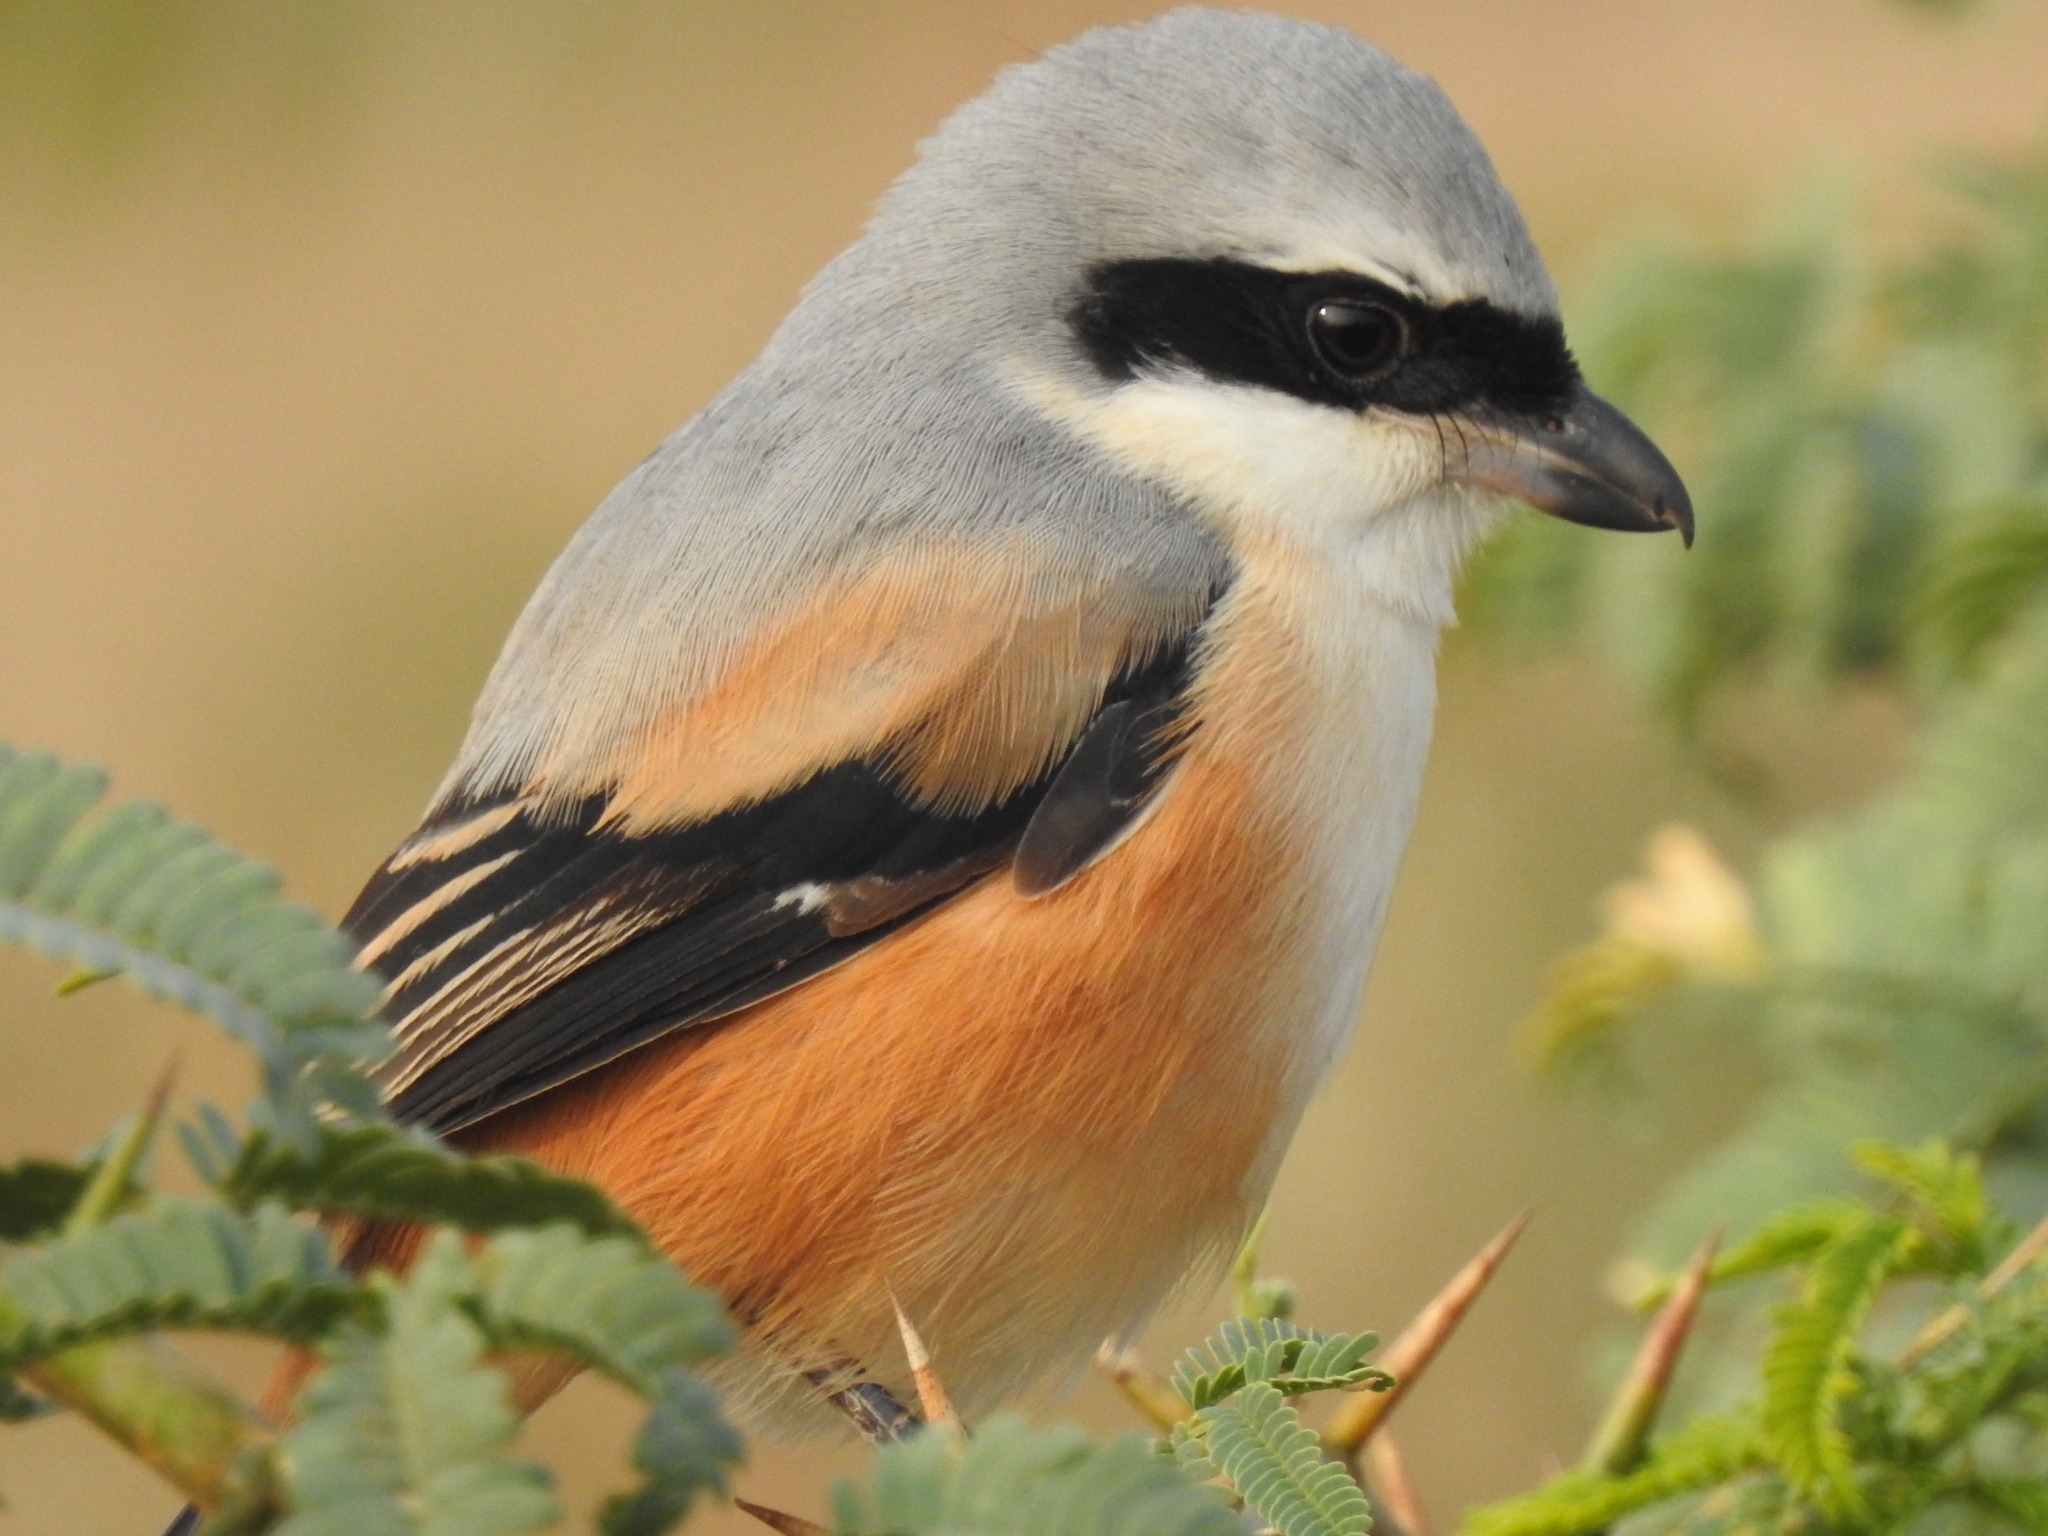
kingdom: Animalia
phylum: Chordata
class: Aves
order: Passeriformes
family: Laniidae
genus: Lanius
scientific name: Lanius schach
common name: Long-tailed shrike
